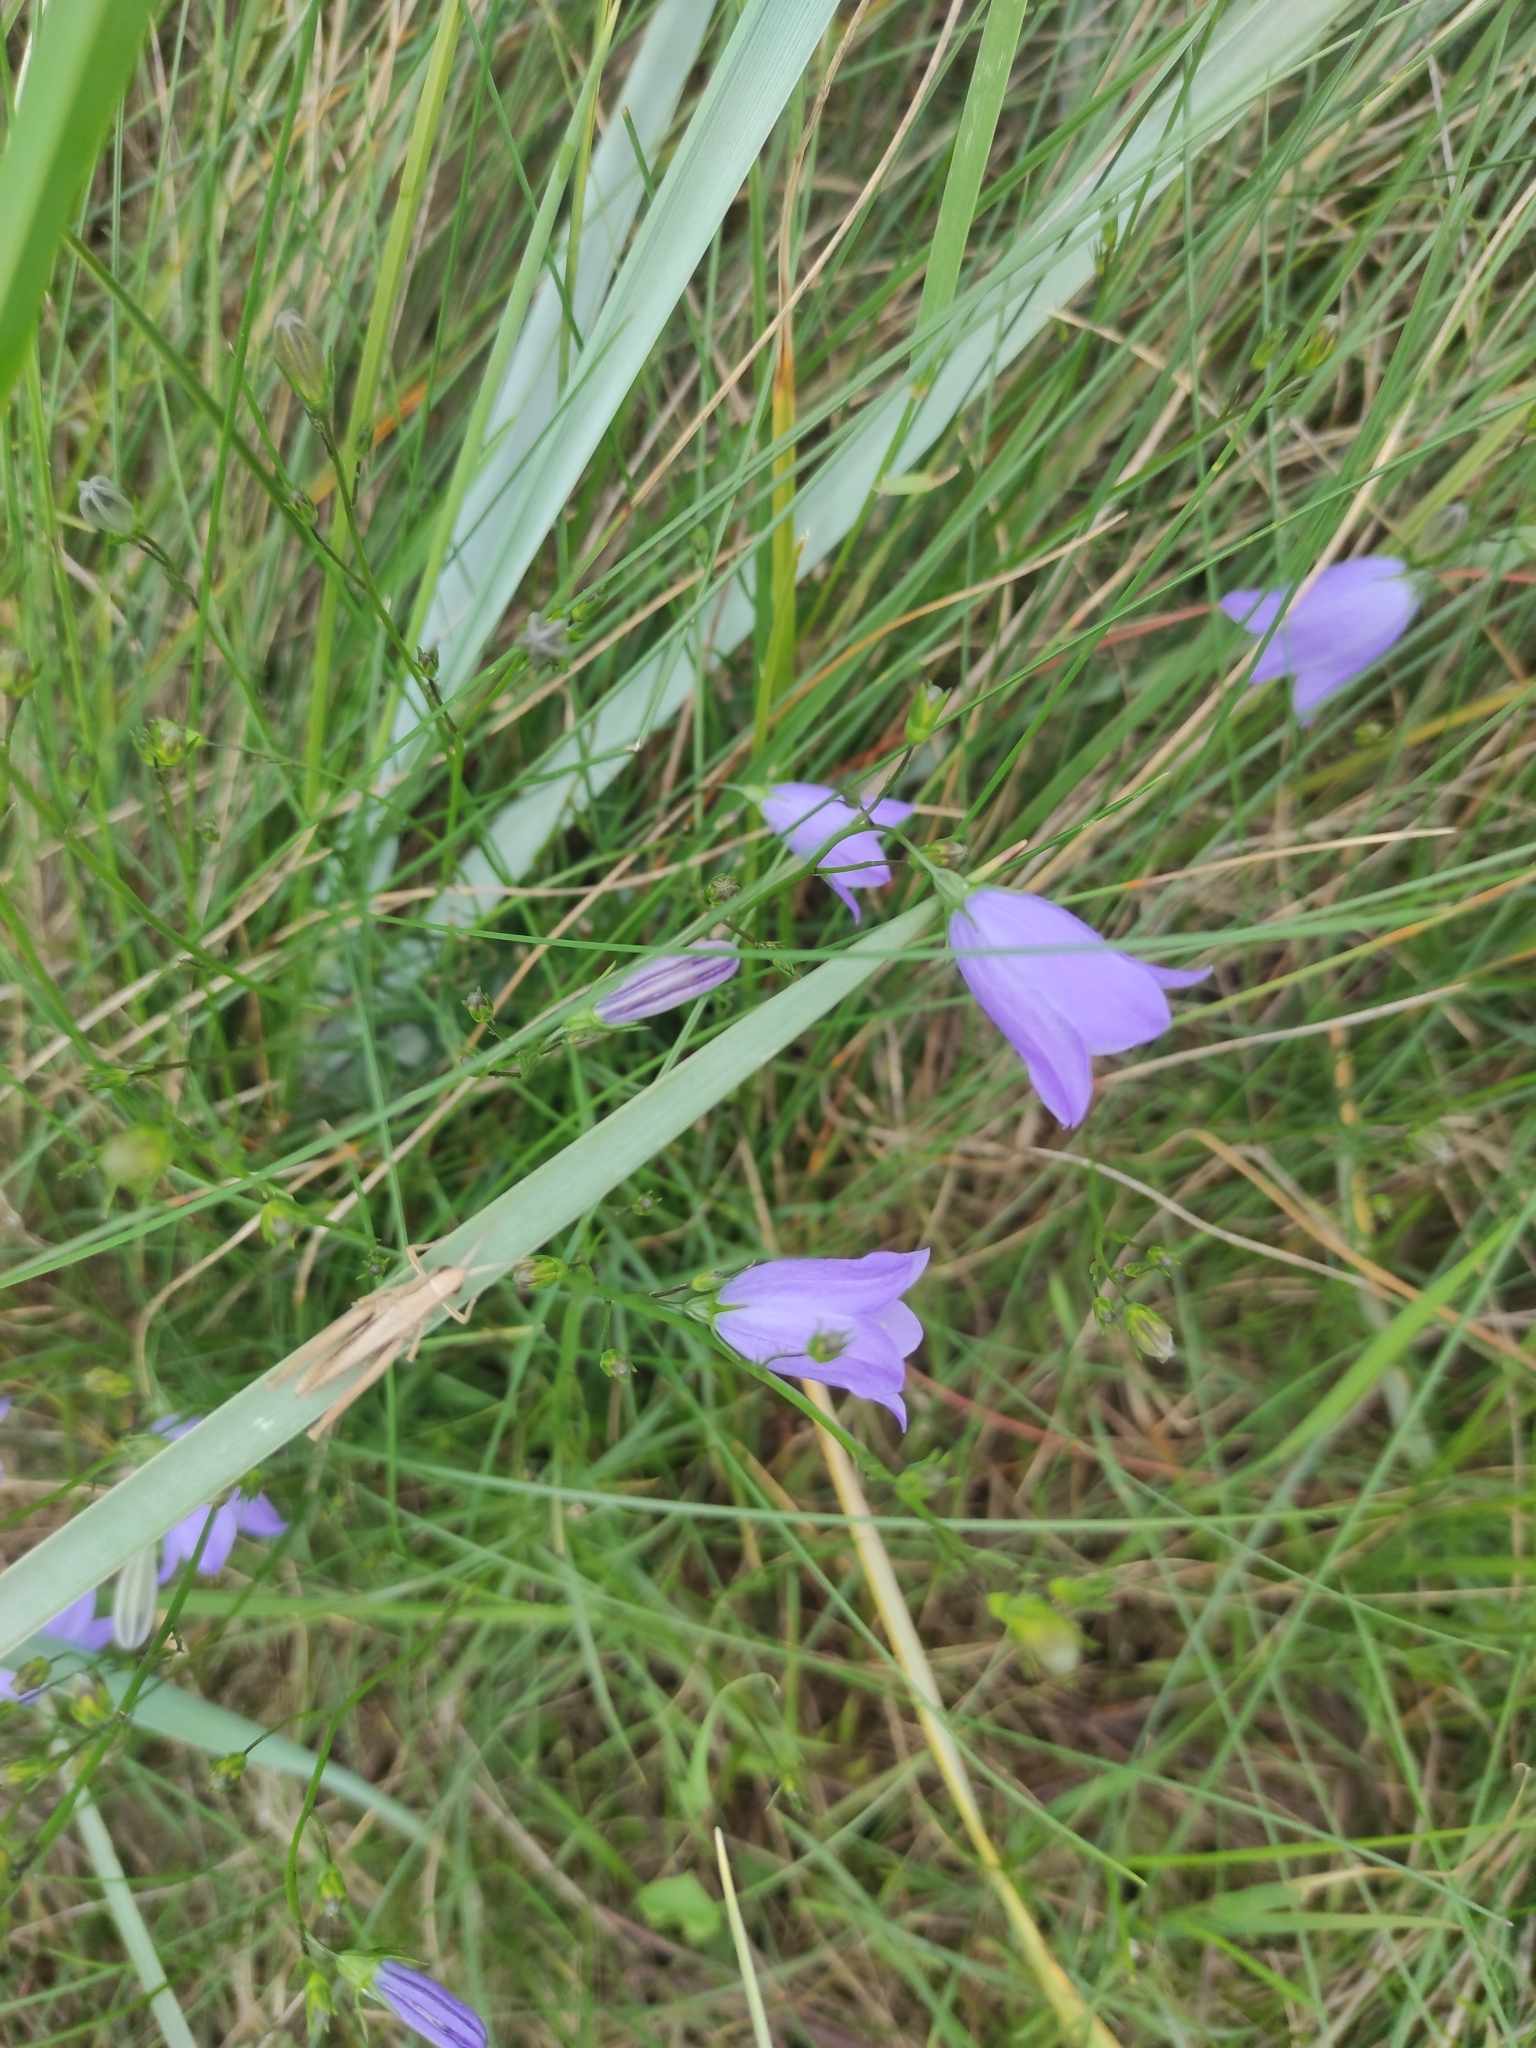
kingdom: Plantae
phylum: Tracheophyta
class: Magnoliopsida
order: Asterales
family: Campanulaceae
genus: Campanula
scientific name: Campanula rotundifolia
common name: Harebell
